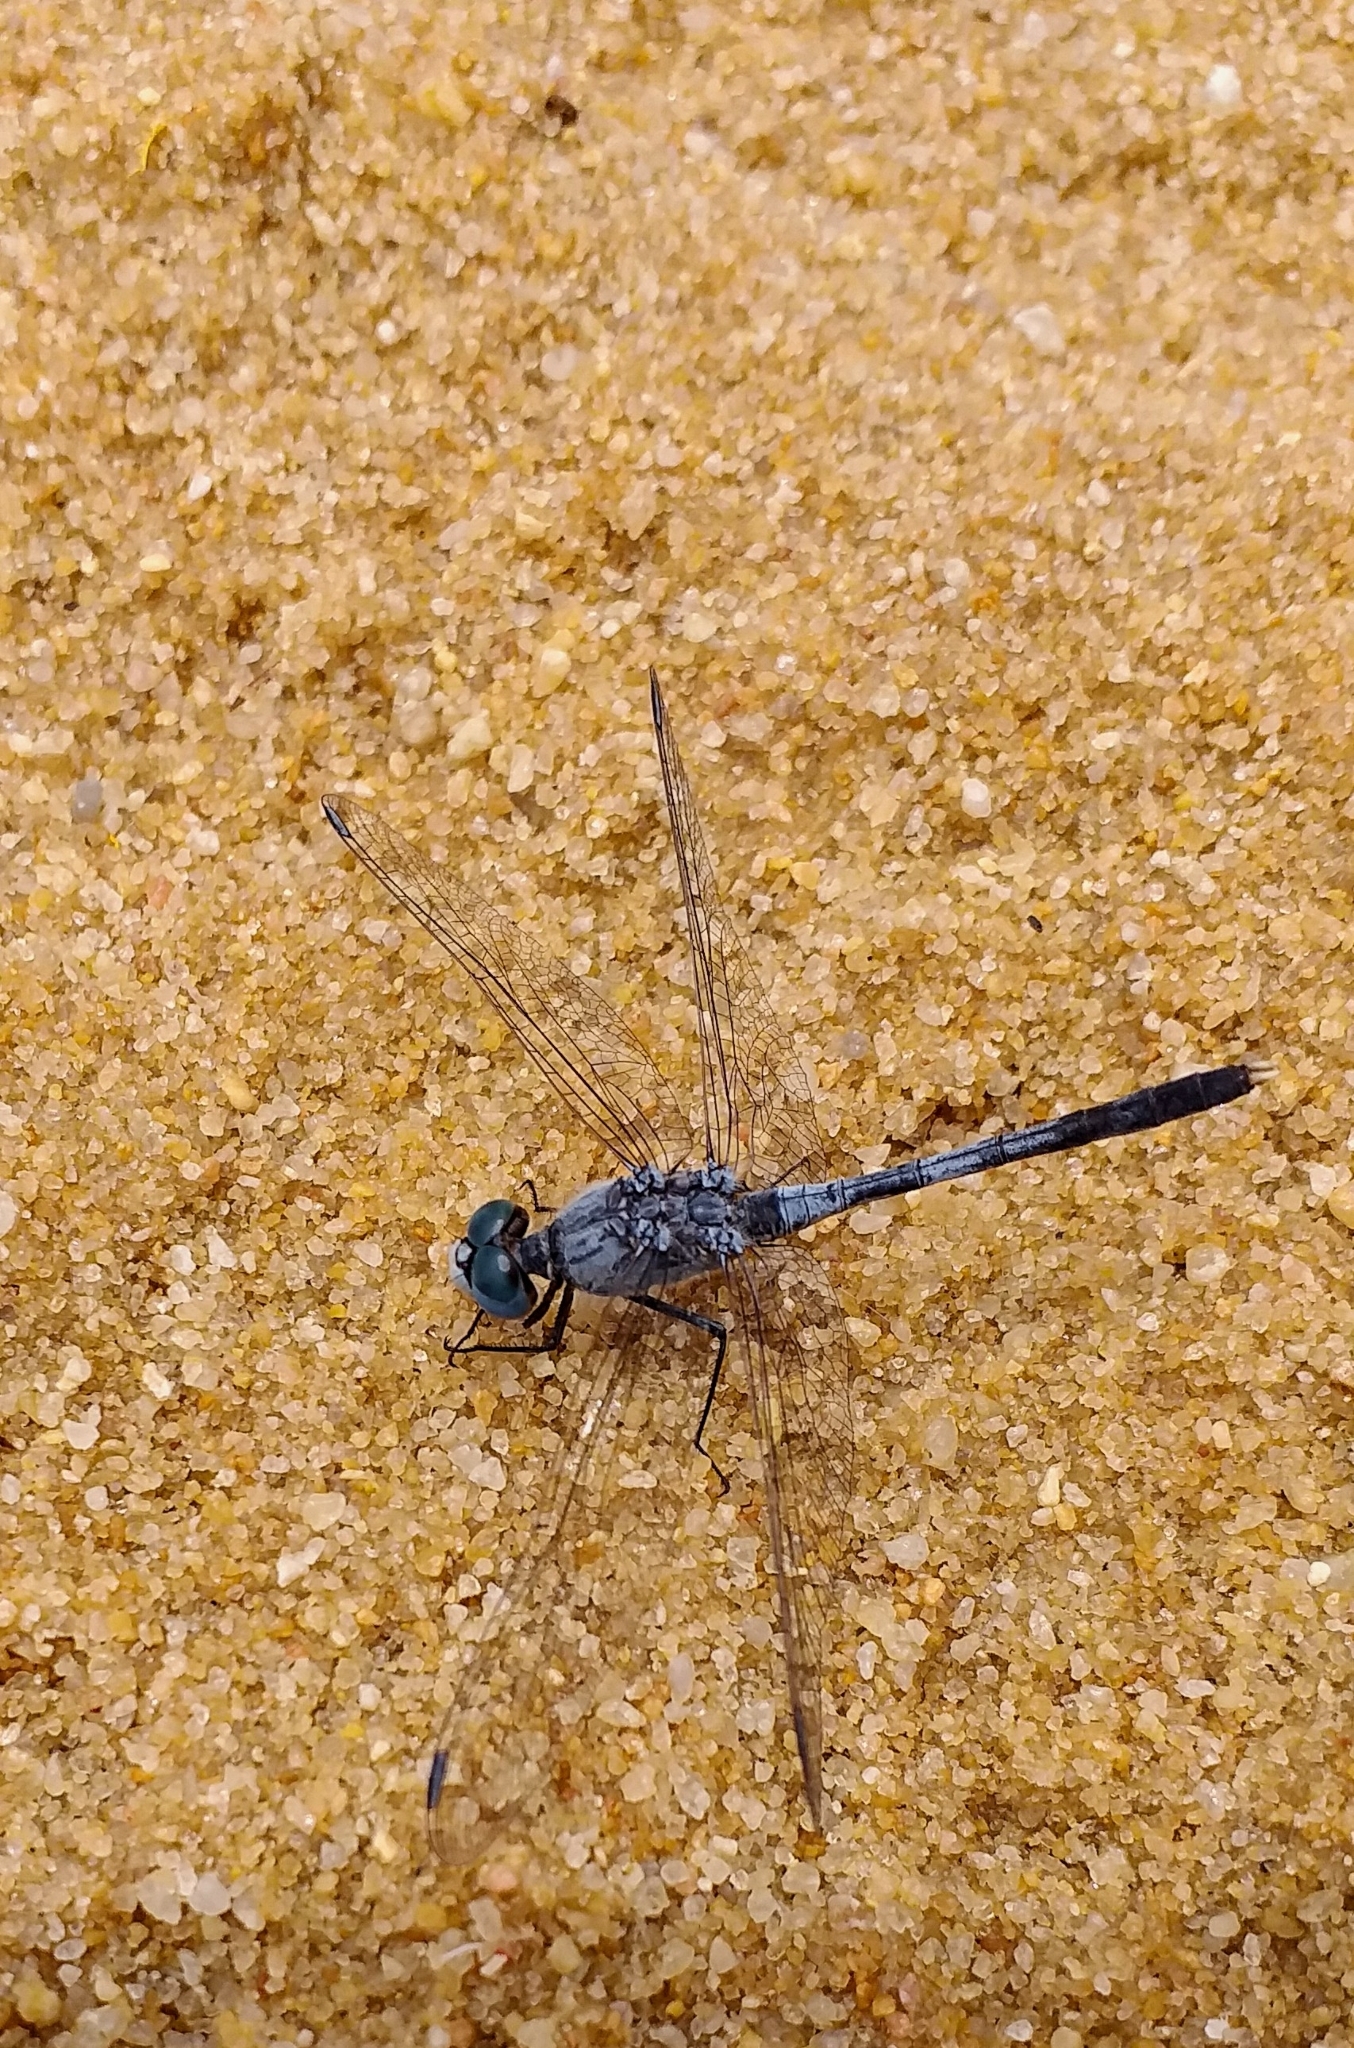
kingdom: Animalia
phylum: Arthropoda
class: Insecta
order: Odonata
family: Libellulidae
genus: Diplacodes
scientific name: Diplacodes trivialis
